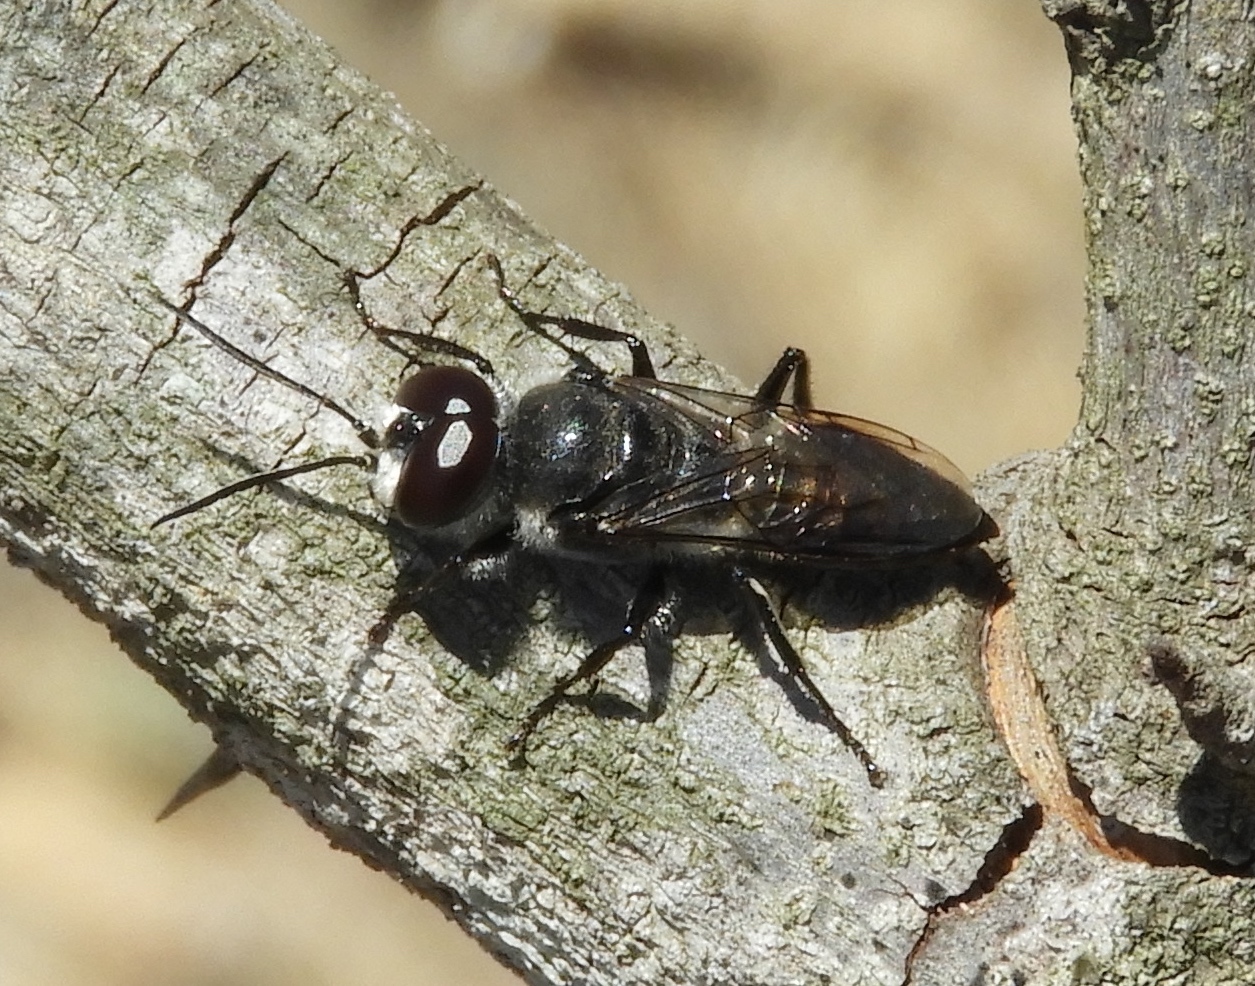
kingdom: Animalia
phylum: Arthropoda
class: Insecta
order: Hymenoptera
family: Crabronidae
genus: Astata
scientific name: Astata
